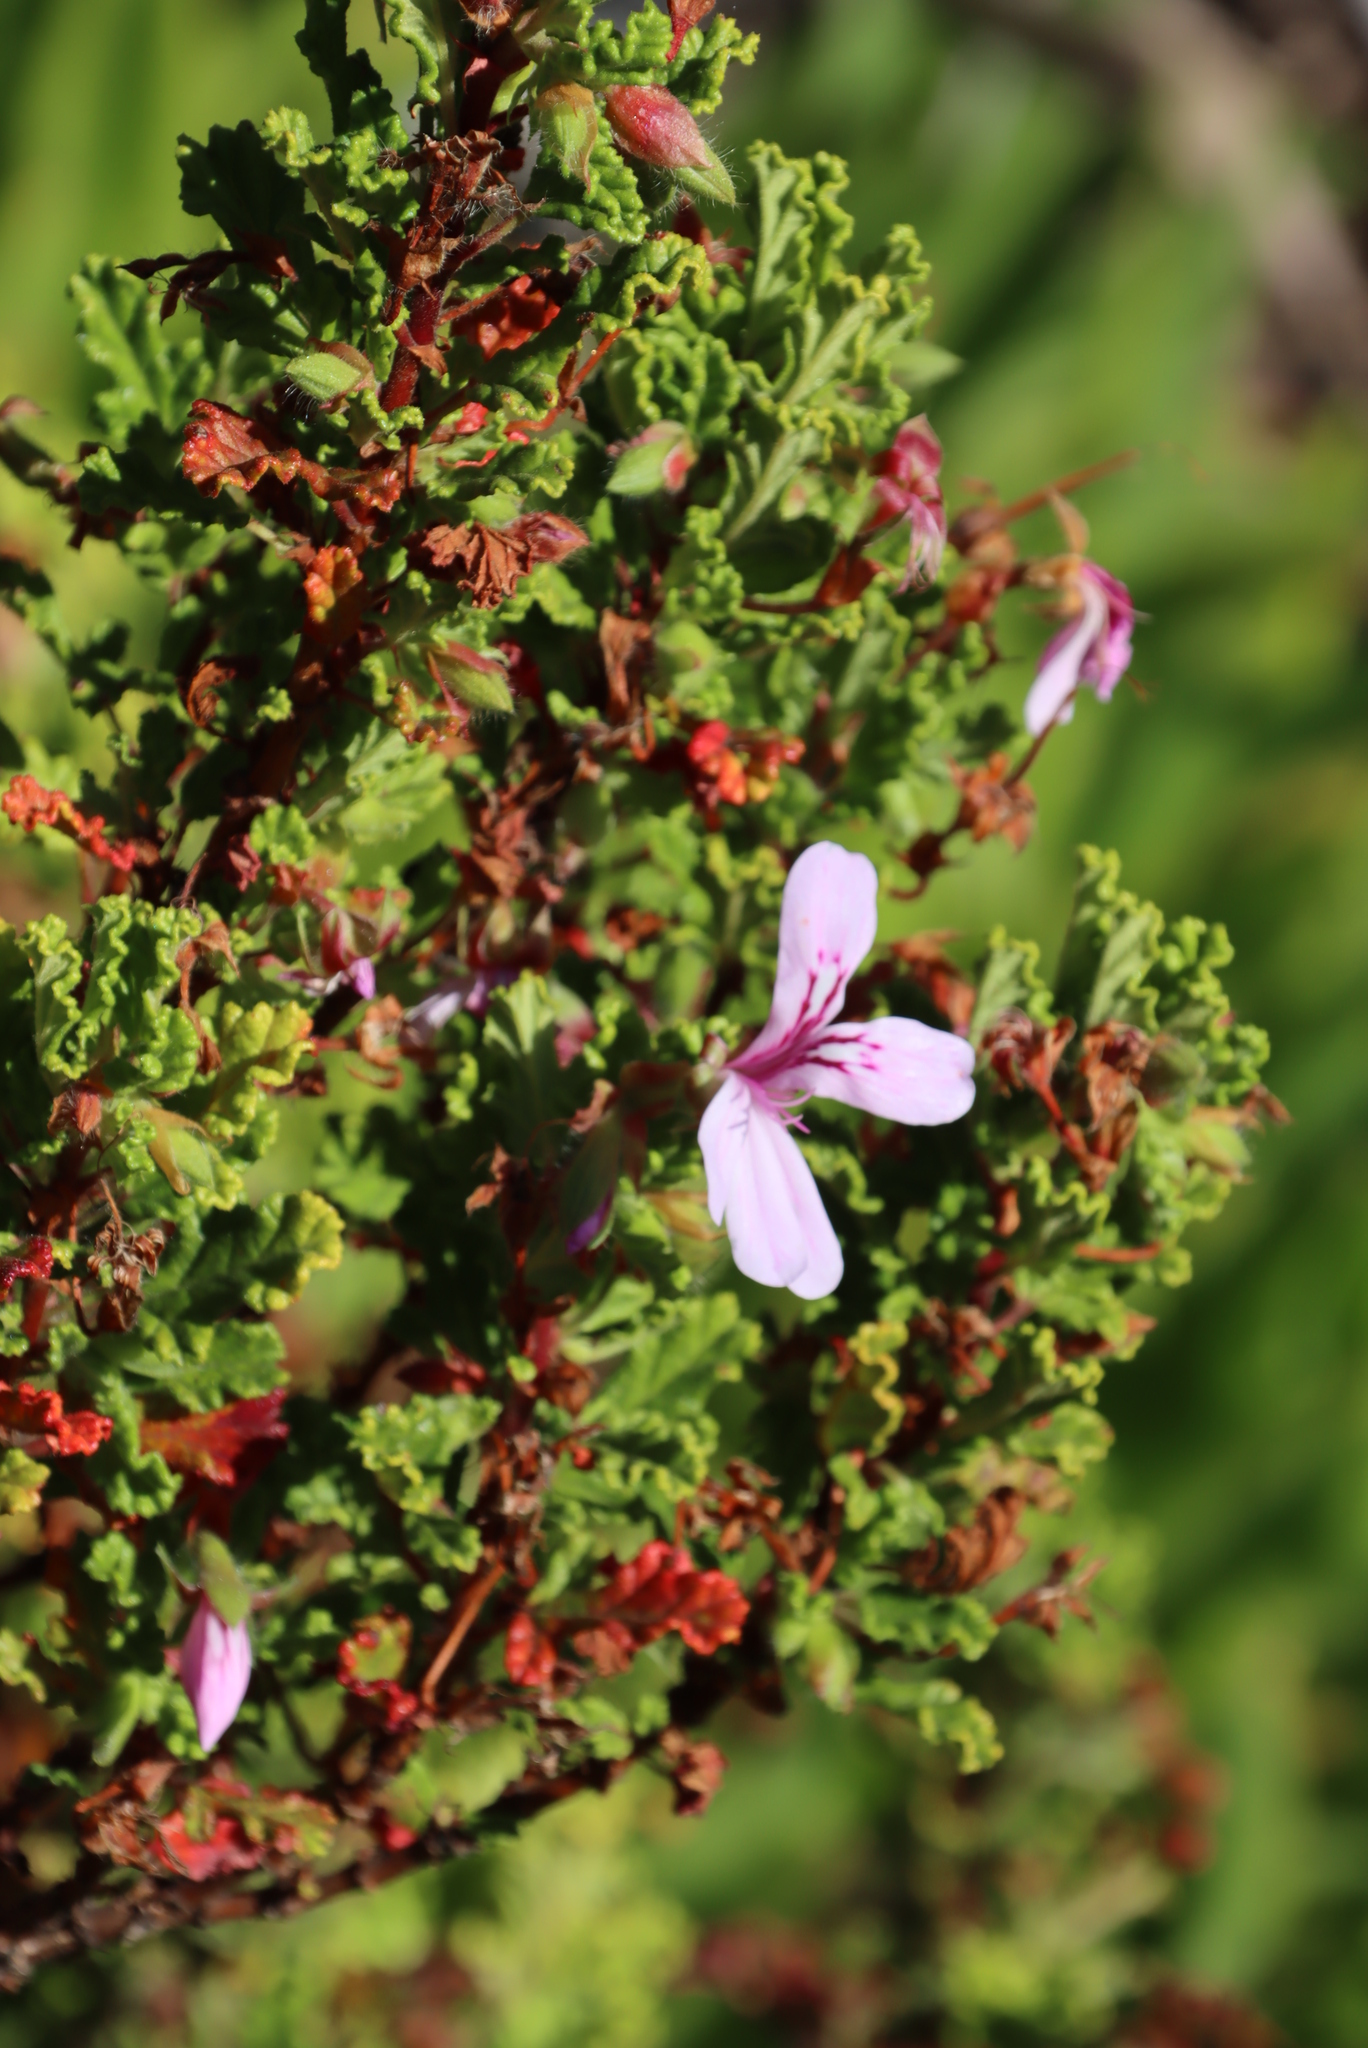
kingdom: Plantae
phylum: Tracheophyta
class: Magnoliopsida
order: Geraniales
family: Geraniaceae
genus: Pelargonium
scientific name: Pelargonium panduriforme
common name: Oakleaf garden geranium
